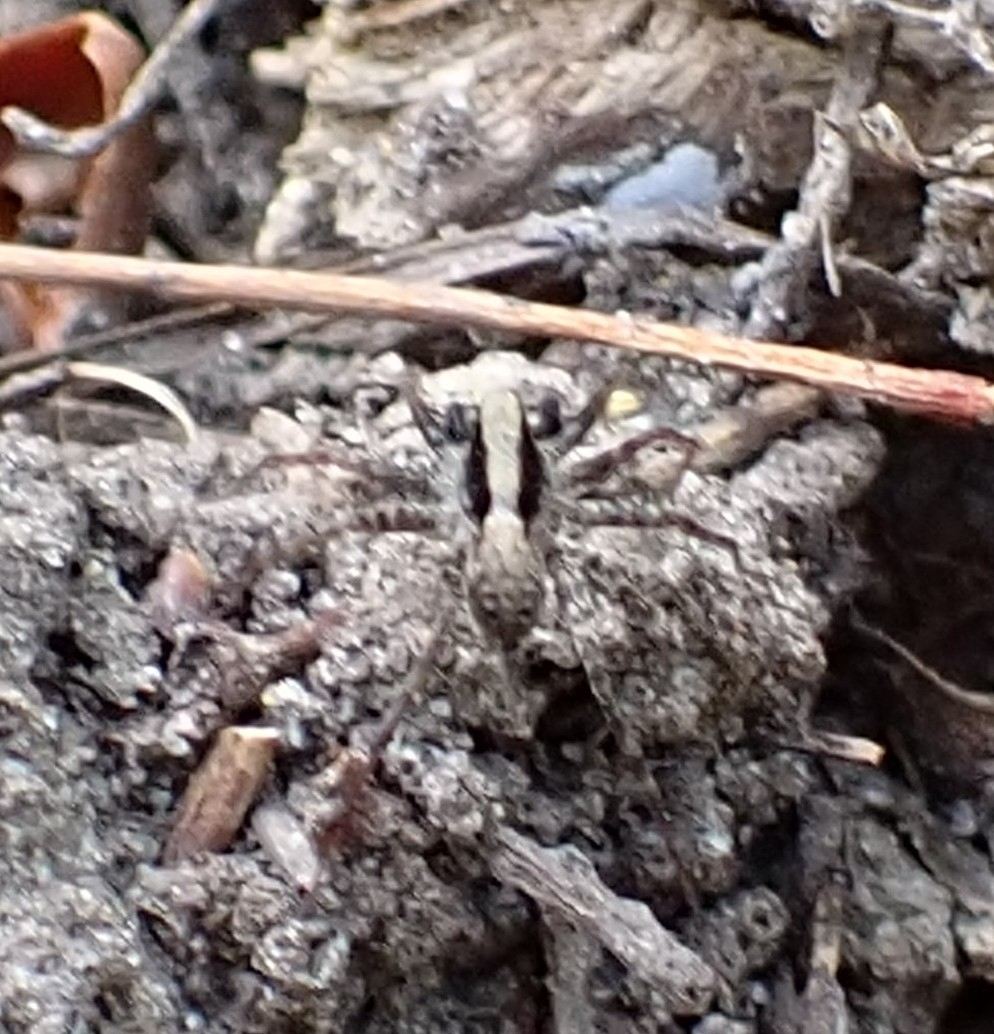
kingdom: Animalia
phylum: Arthropoda
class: Arachnida
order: Araneae
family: Lycosidae
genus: Pardosa
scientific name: Pardosa
